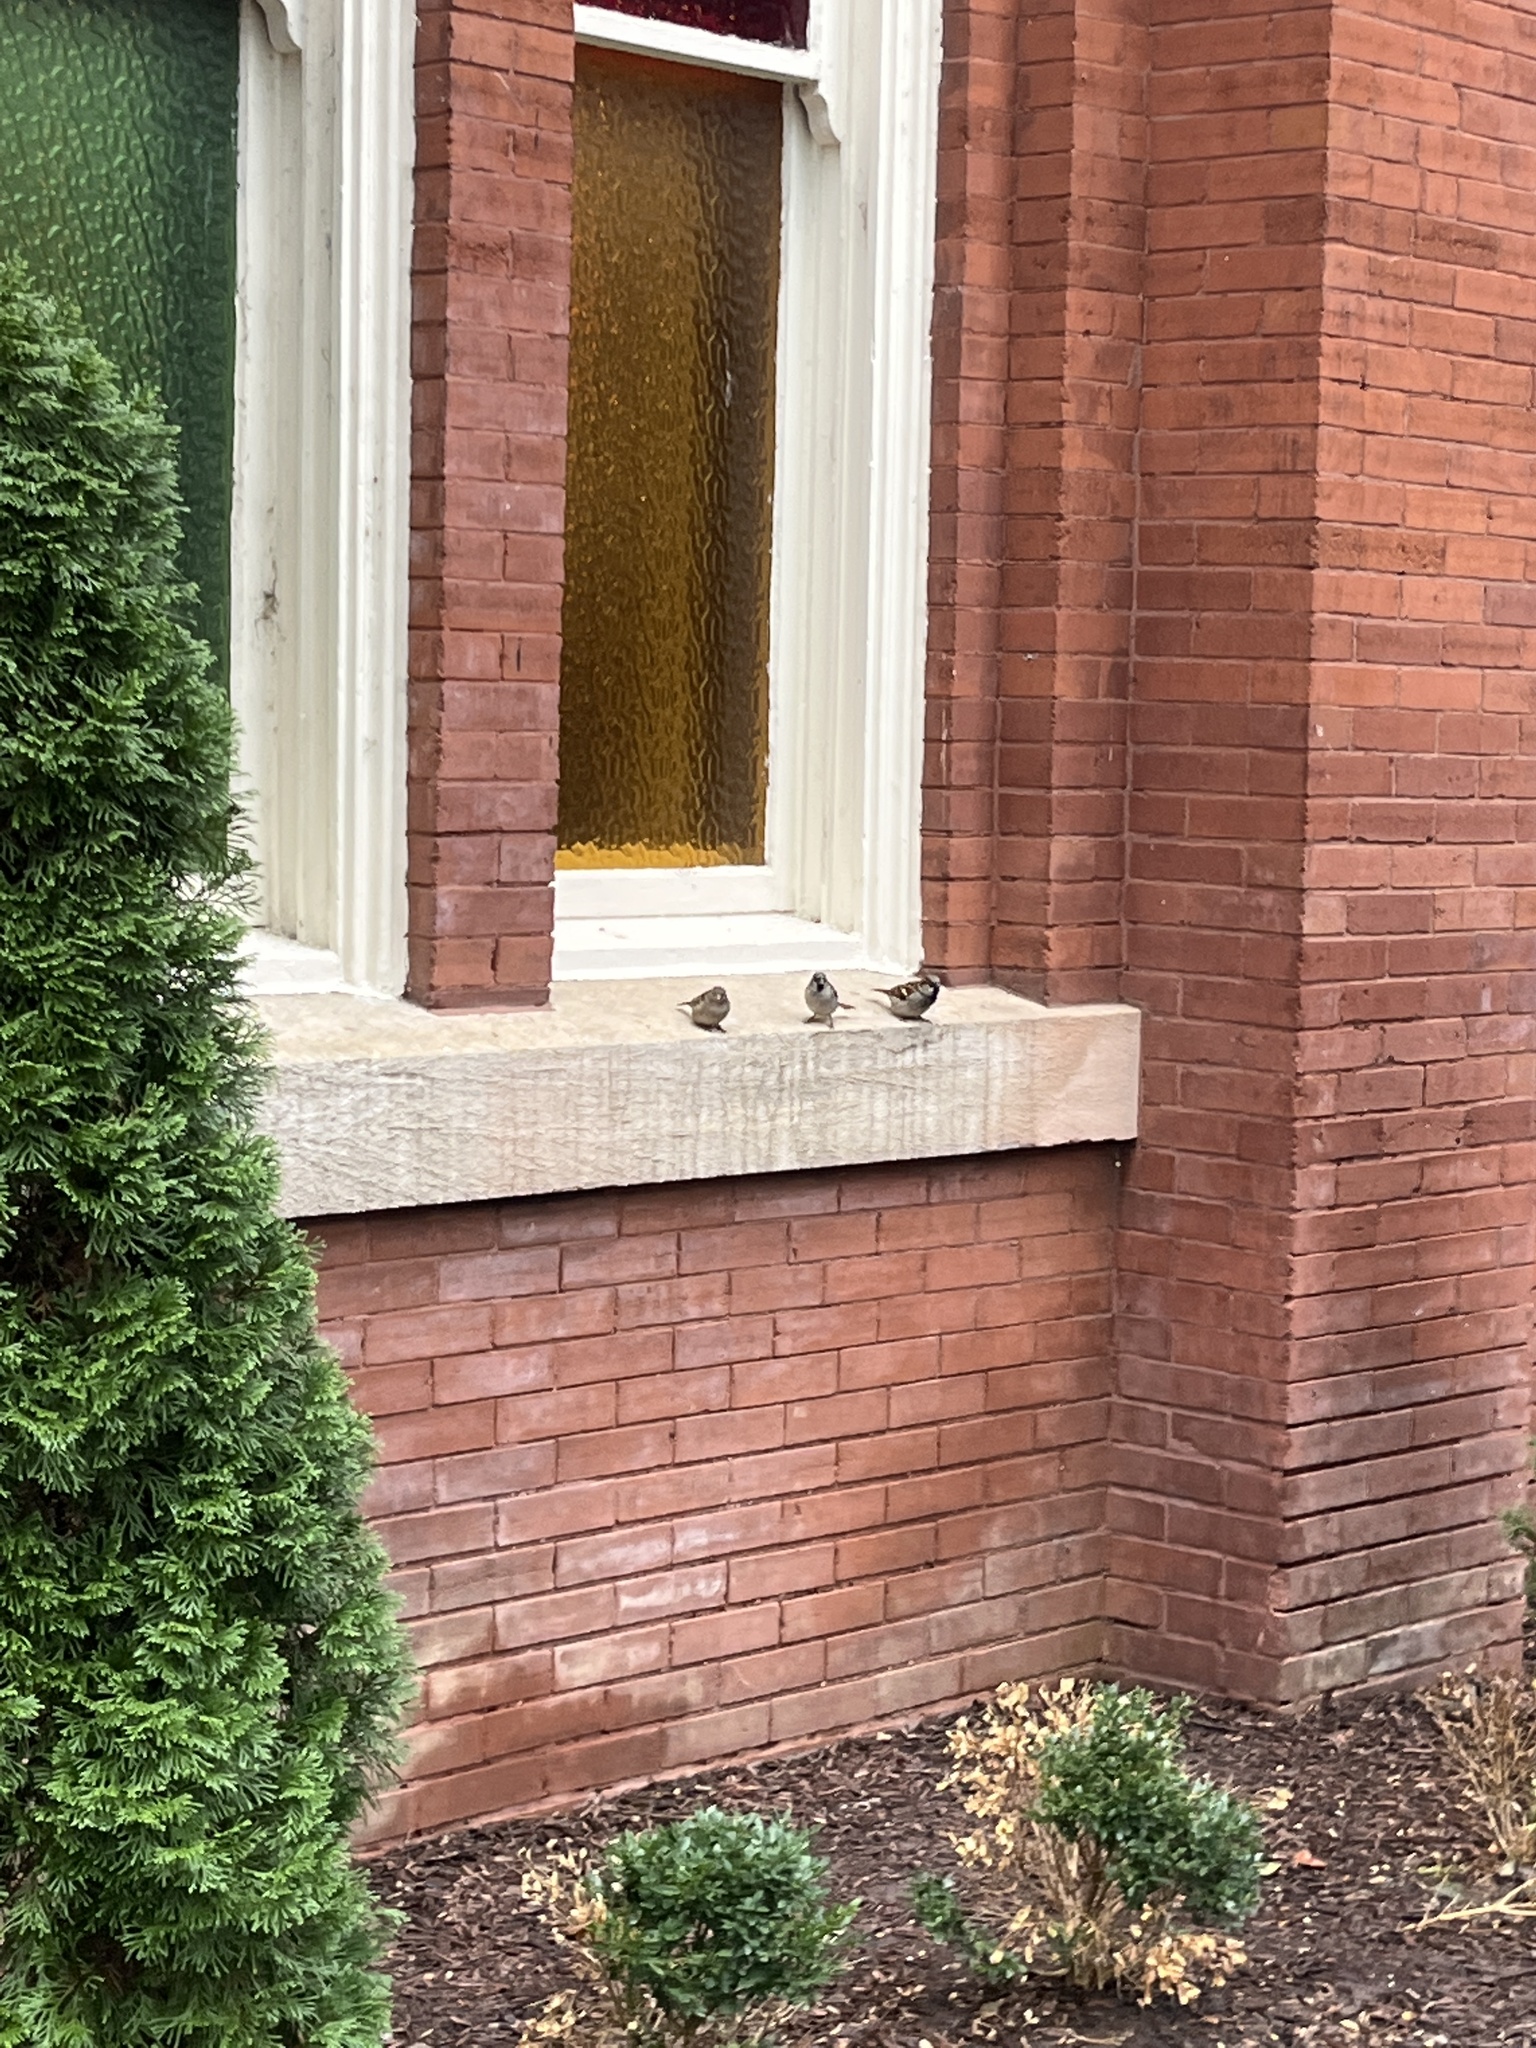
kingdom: Animalia
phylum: Chordata
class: Aves
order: Passeriformes
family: Passeridae
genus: Passer
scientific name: Passer domesticus
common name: House sparrow
